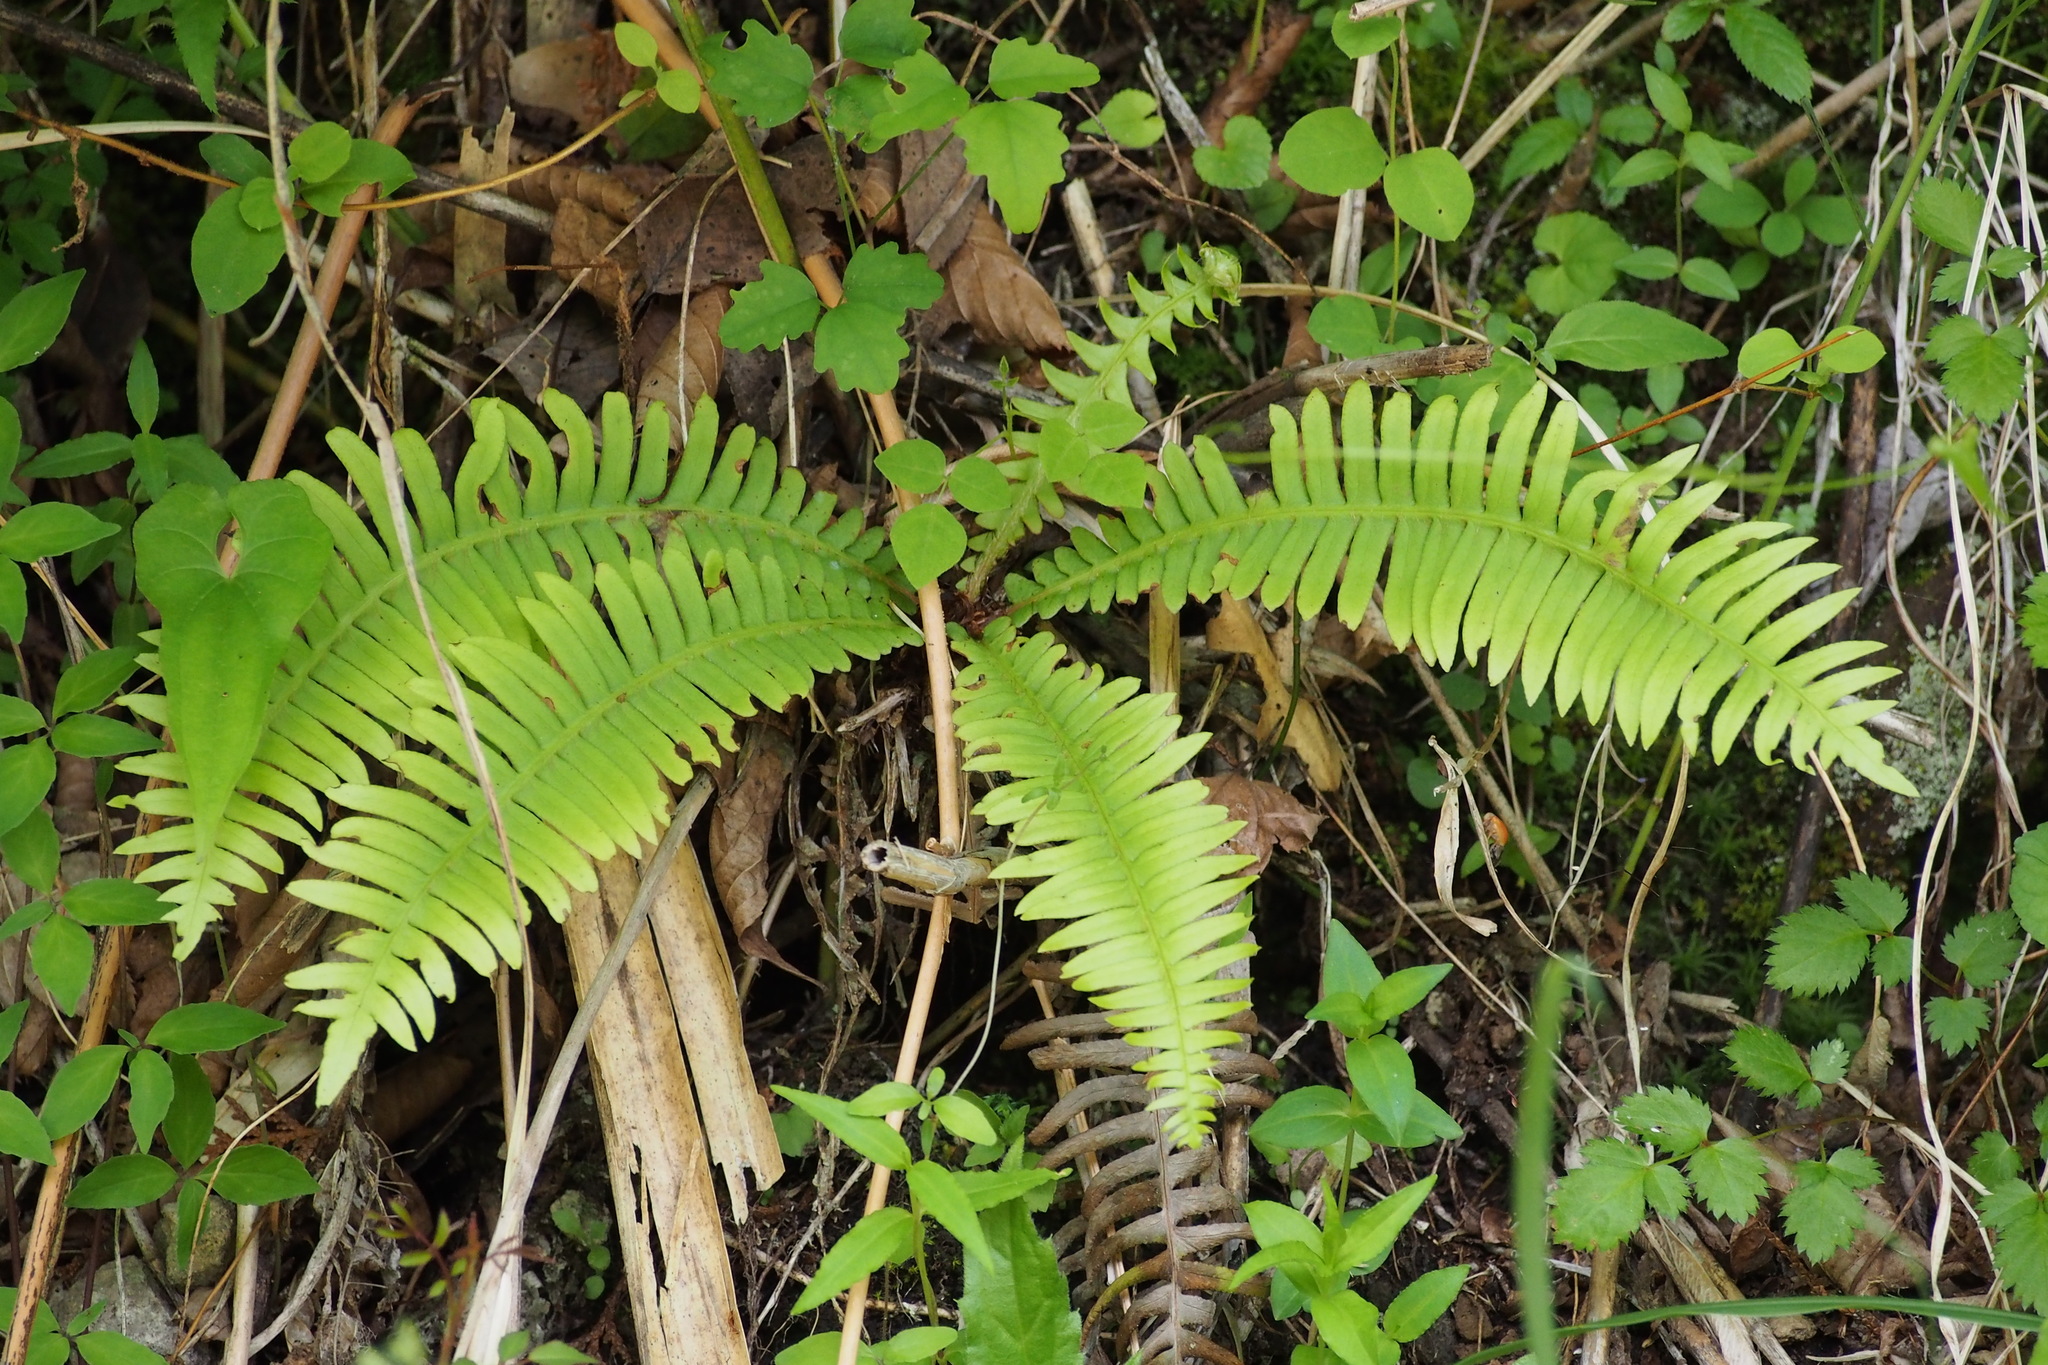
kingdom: Plantae
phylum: Tracheophyta
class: Polypodiopsida
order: Polypodiales
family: Blechnaceae
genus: Spicantopsis
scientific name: Spicantopsis niponica
